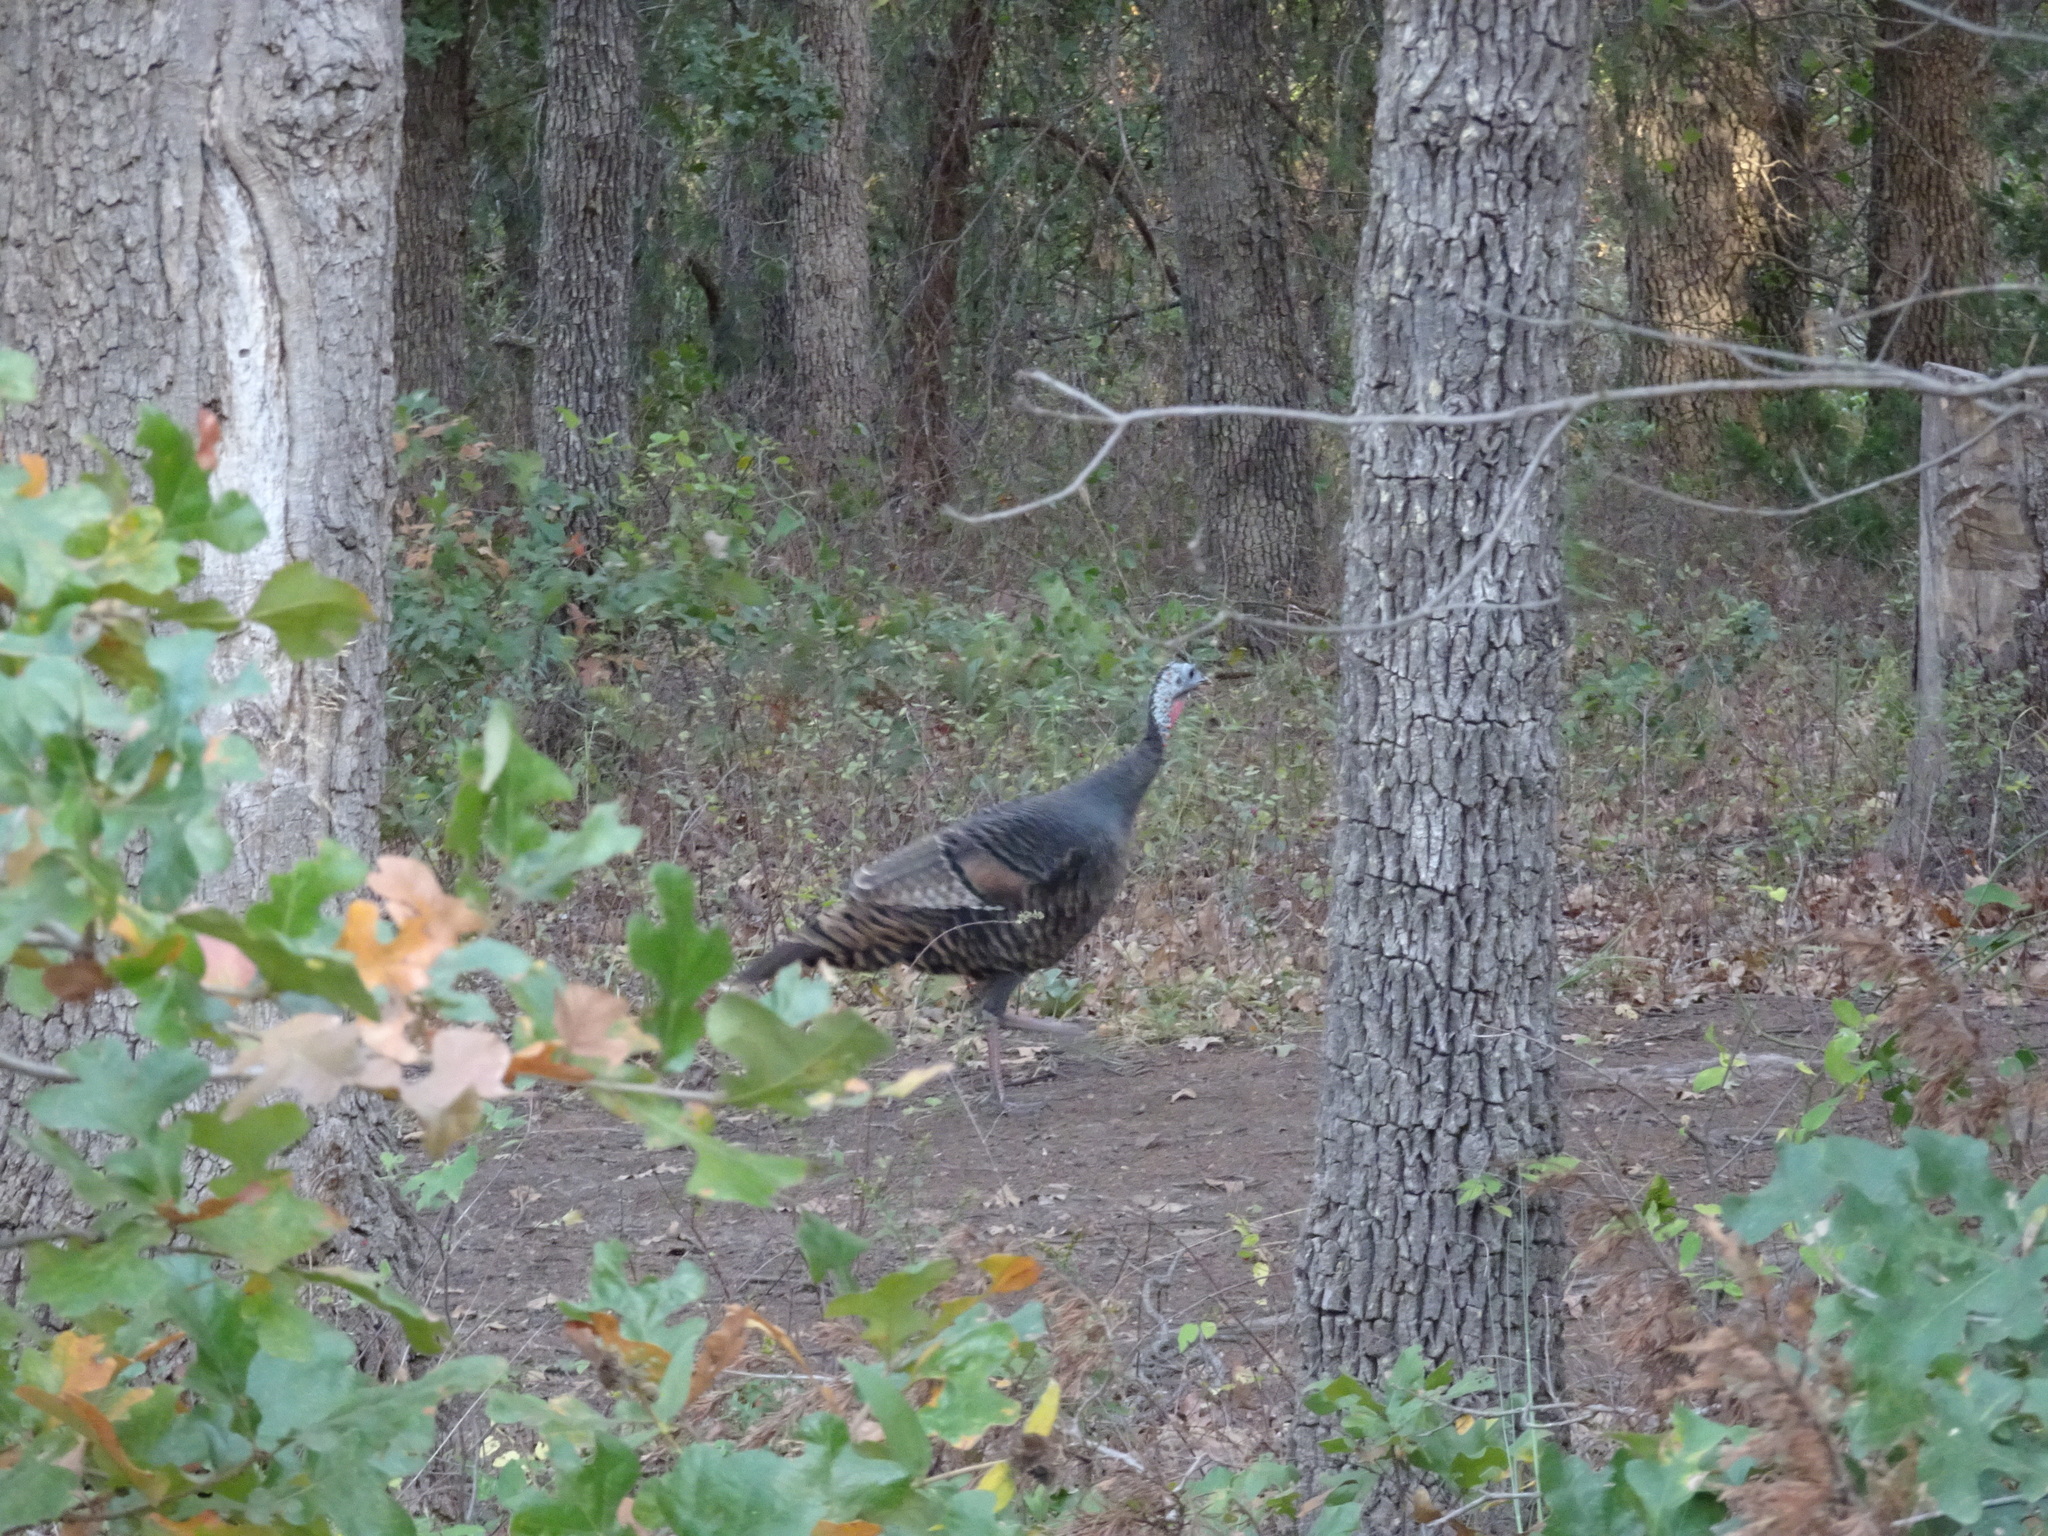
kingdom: Animalia
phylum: Chordata
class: Aves
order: Galliformes
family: Phasianidae
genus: Meleagris
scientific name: Meleagris gallopavo
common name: Wild turkey
